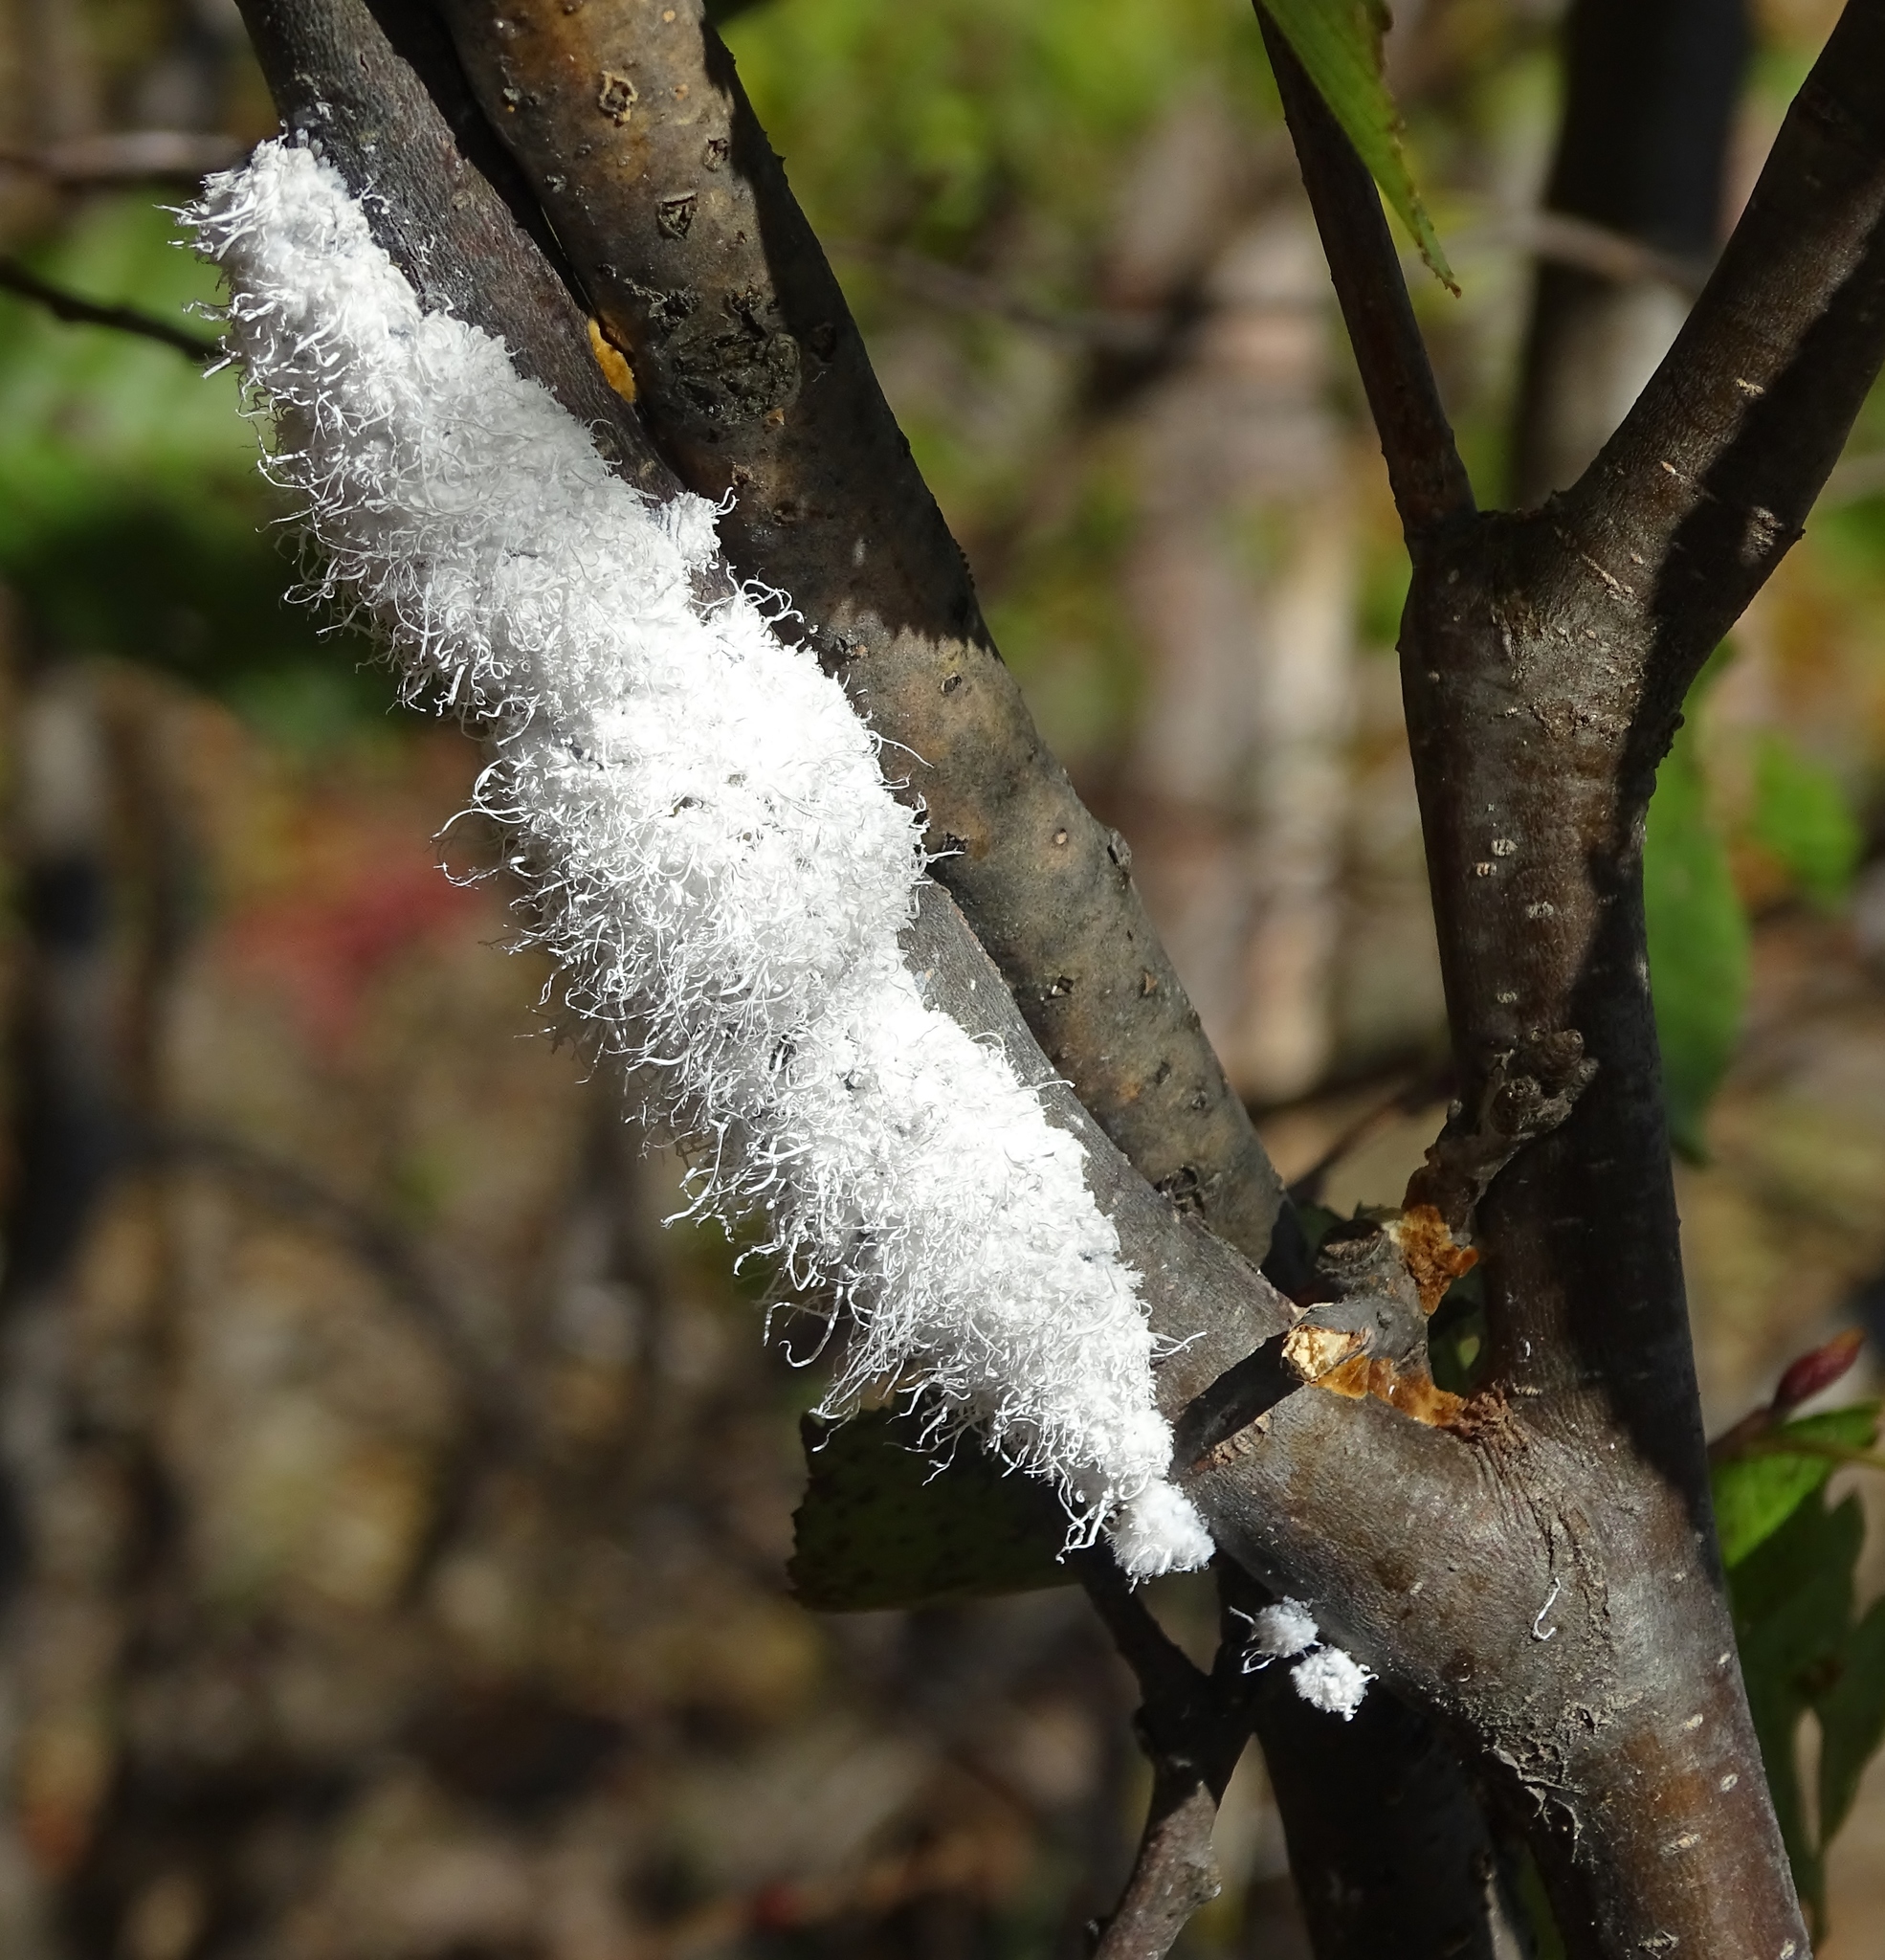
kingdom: Animalia
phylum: Arthropoda
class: Insecta
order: Hemiptera
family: Aphididae
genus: Prociphilus
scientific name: Prociphilus tessellatus
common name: Woolly alder aphid
